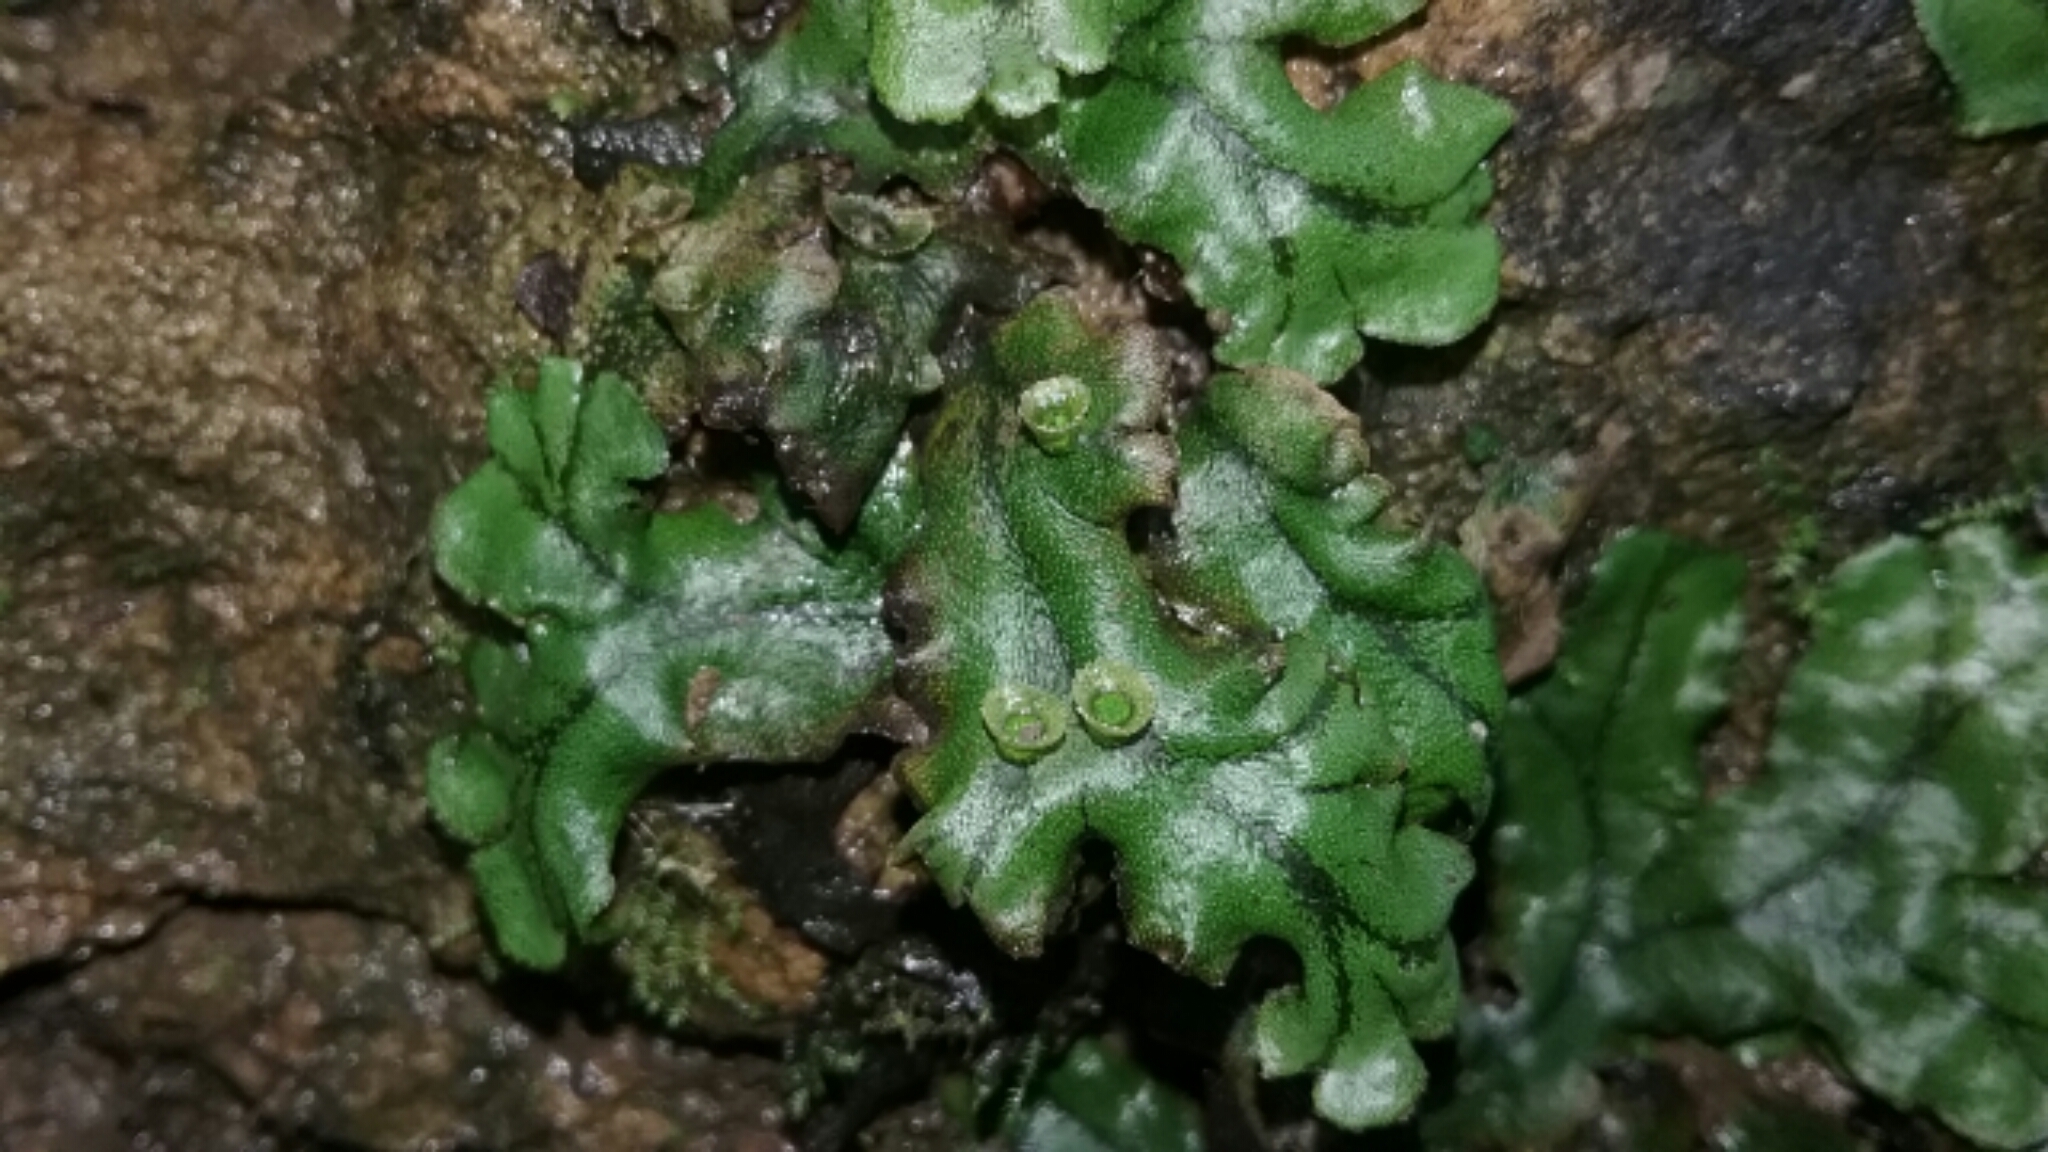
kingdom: Plantae
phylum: Marchantiophyta
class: Marchantiopsida
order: Marchantiales
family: Marchantiaceae
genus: Marchantia
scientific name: Marchantia polymorpha
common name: Common liverwort
